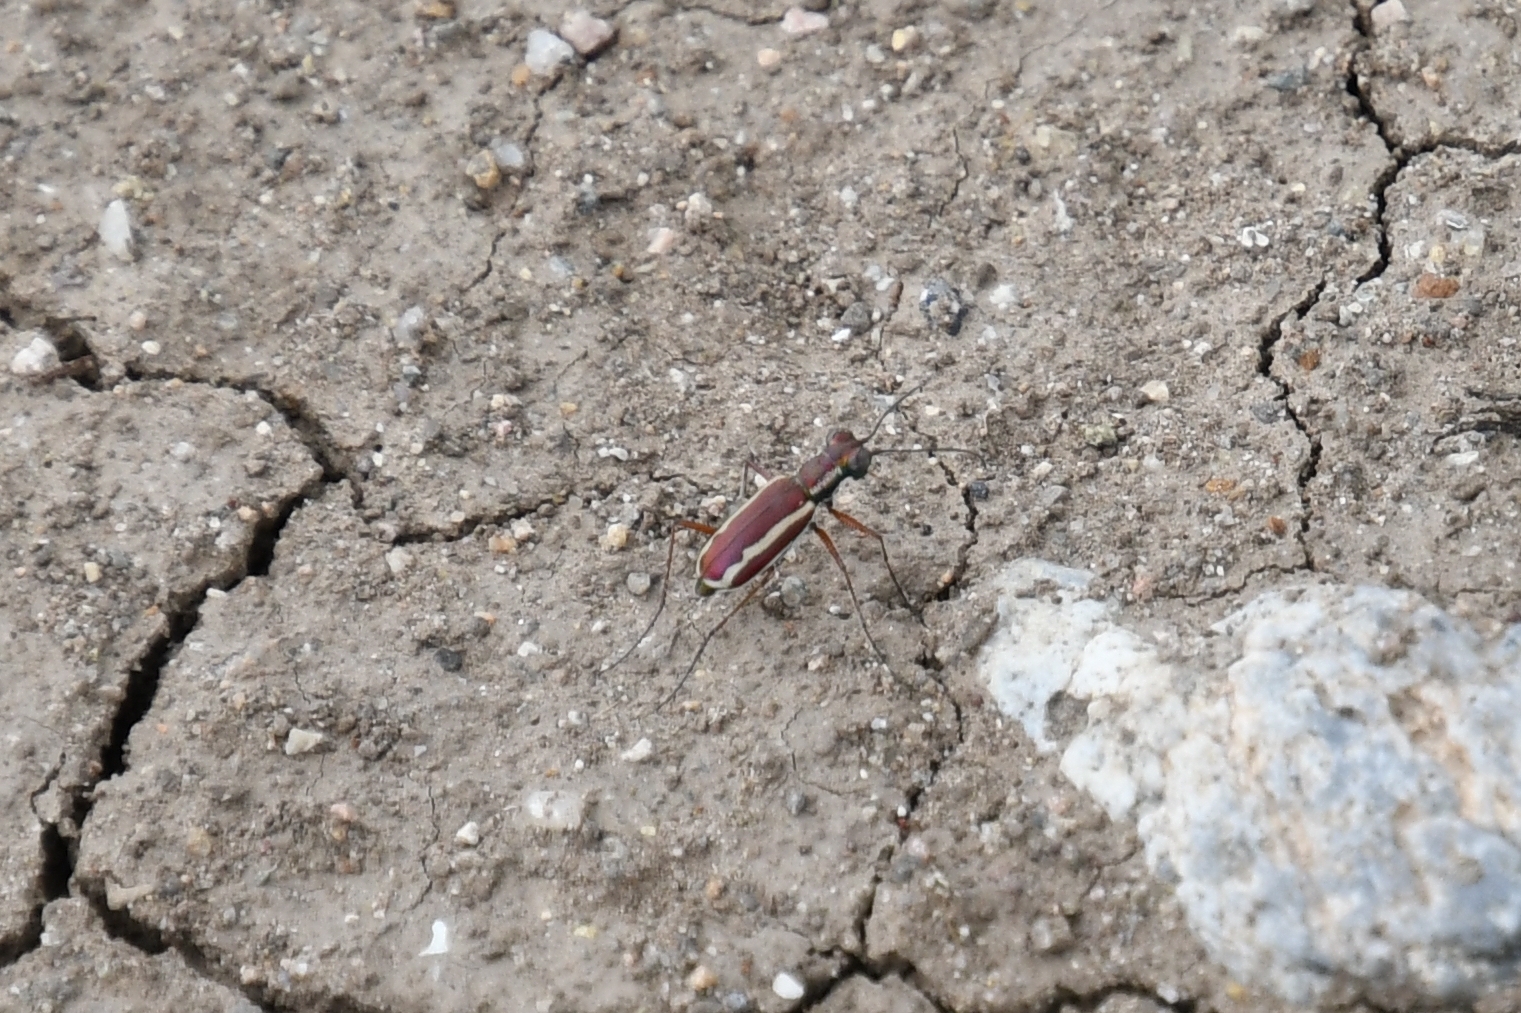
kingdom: Animalia
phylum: Arthropoda
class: Insecta
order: Coleoptera
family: Carabidae
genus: Cylindera
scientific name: Cylindera lemniscata
